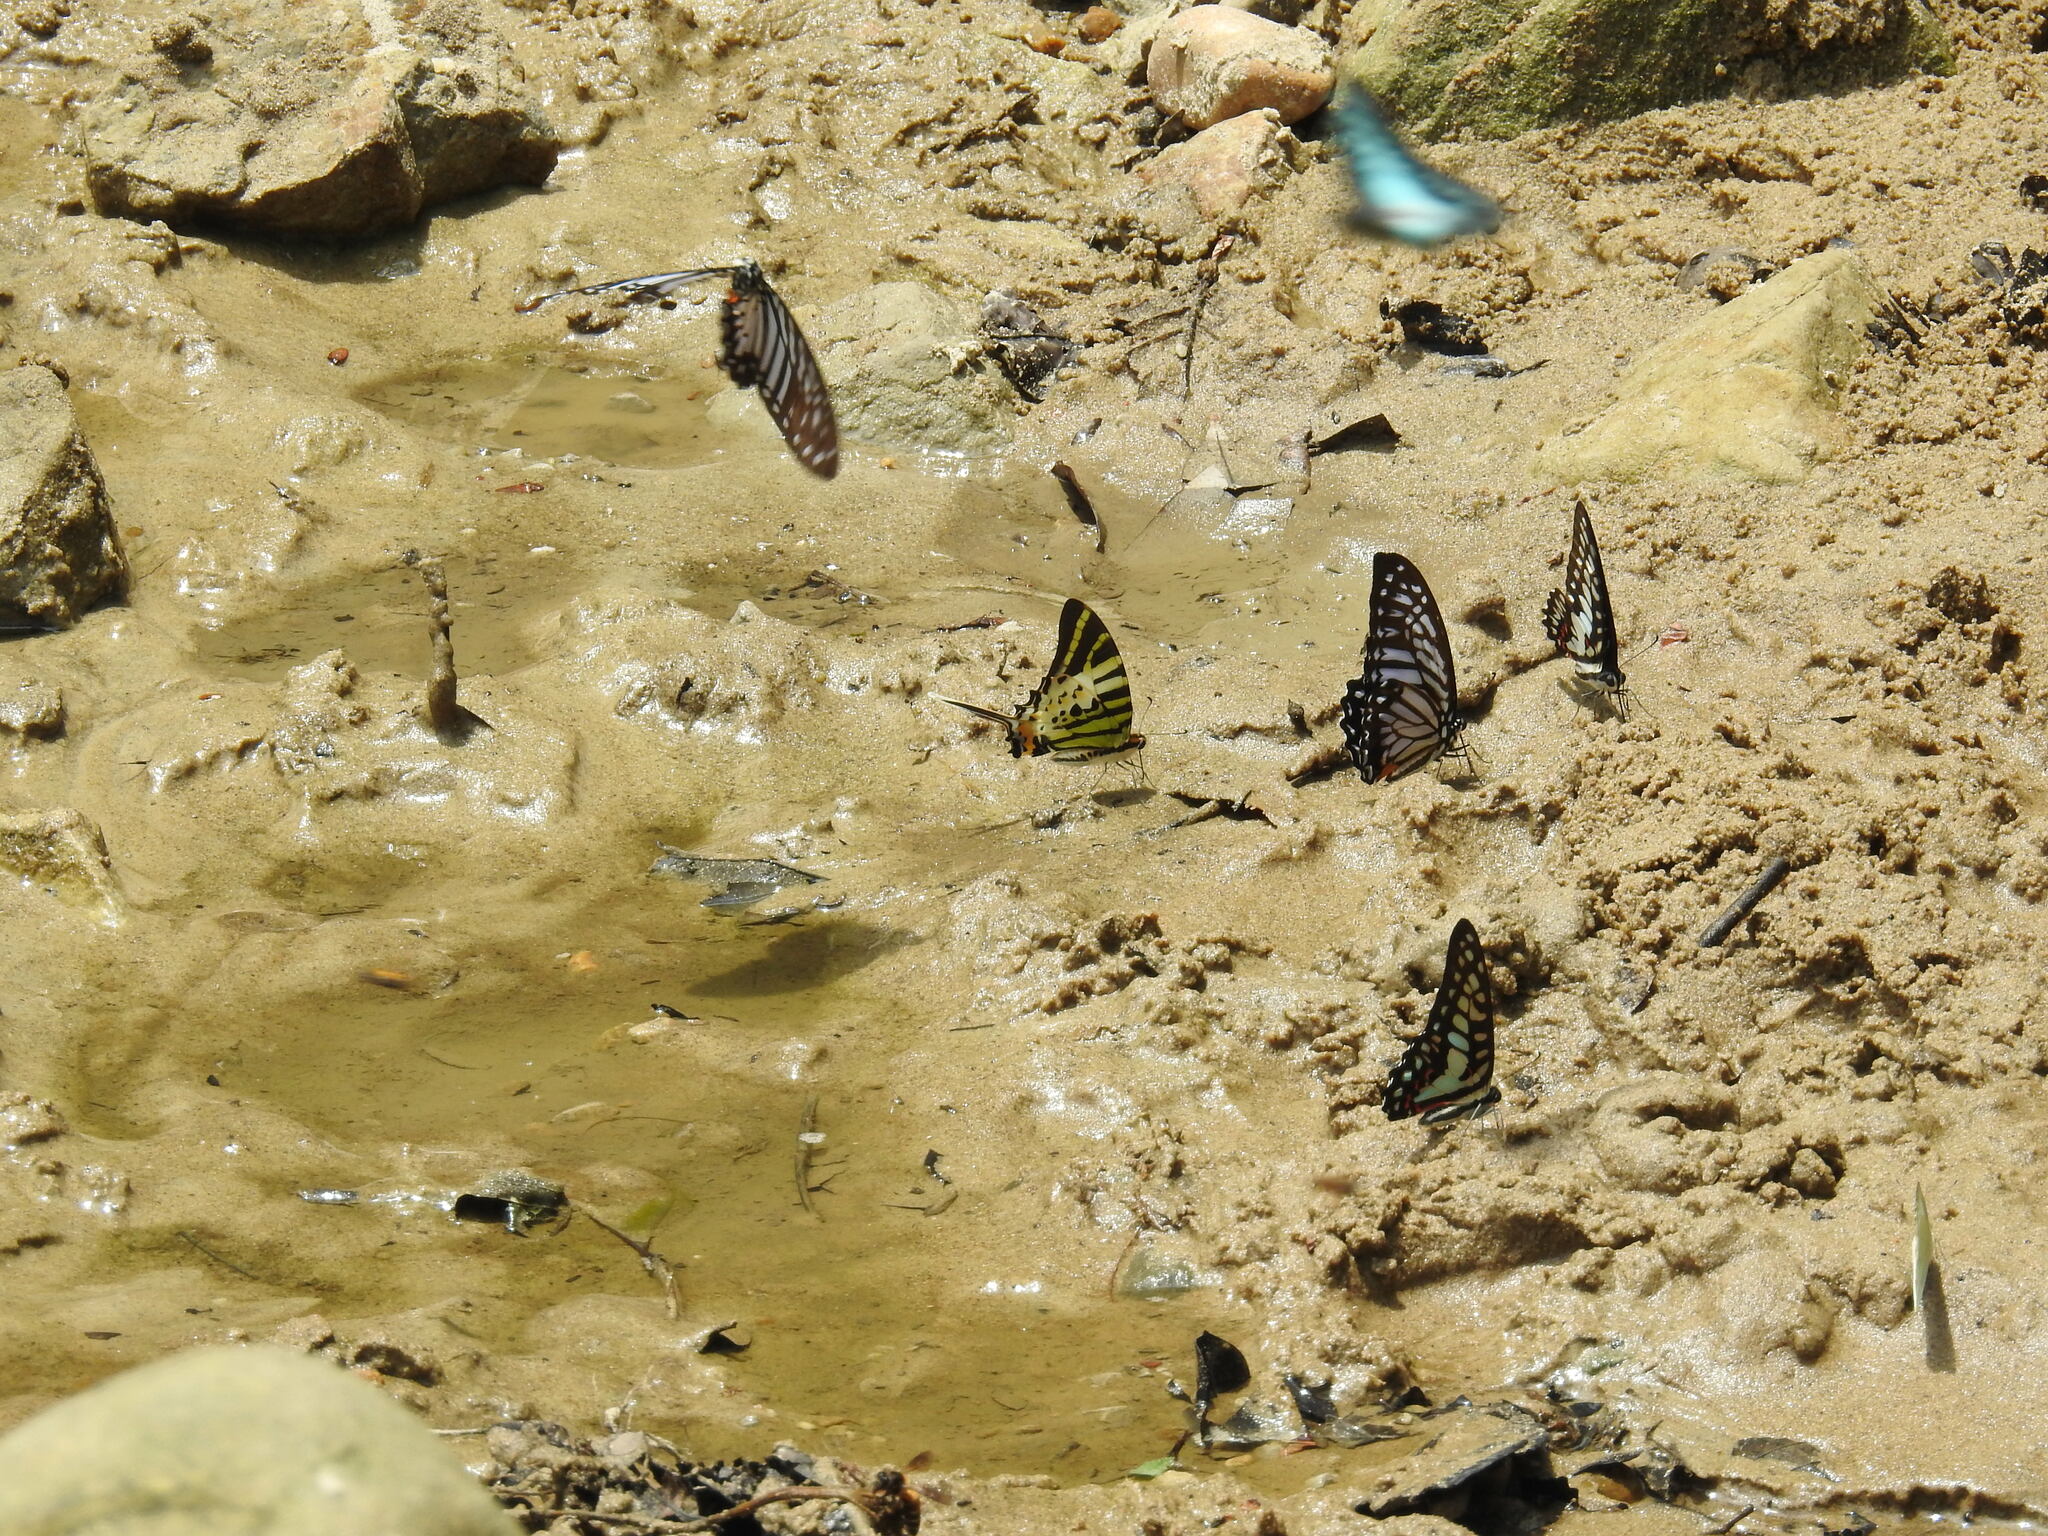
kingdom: Animalia
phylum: Arthropoda
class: Insecta
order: Lepidoptera
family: Papilionidae
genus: Graphium
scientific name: Graphium xenocles
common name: Great zebra
